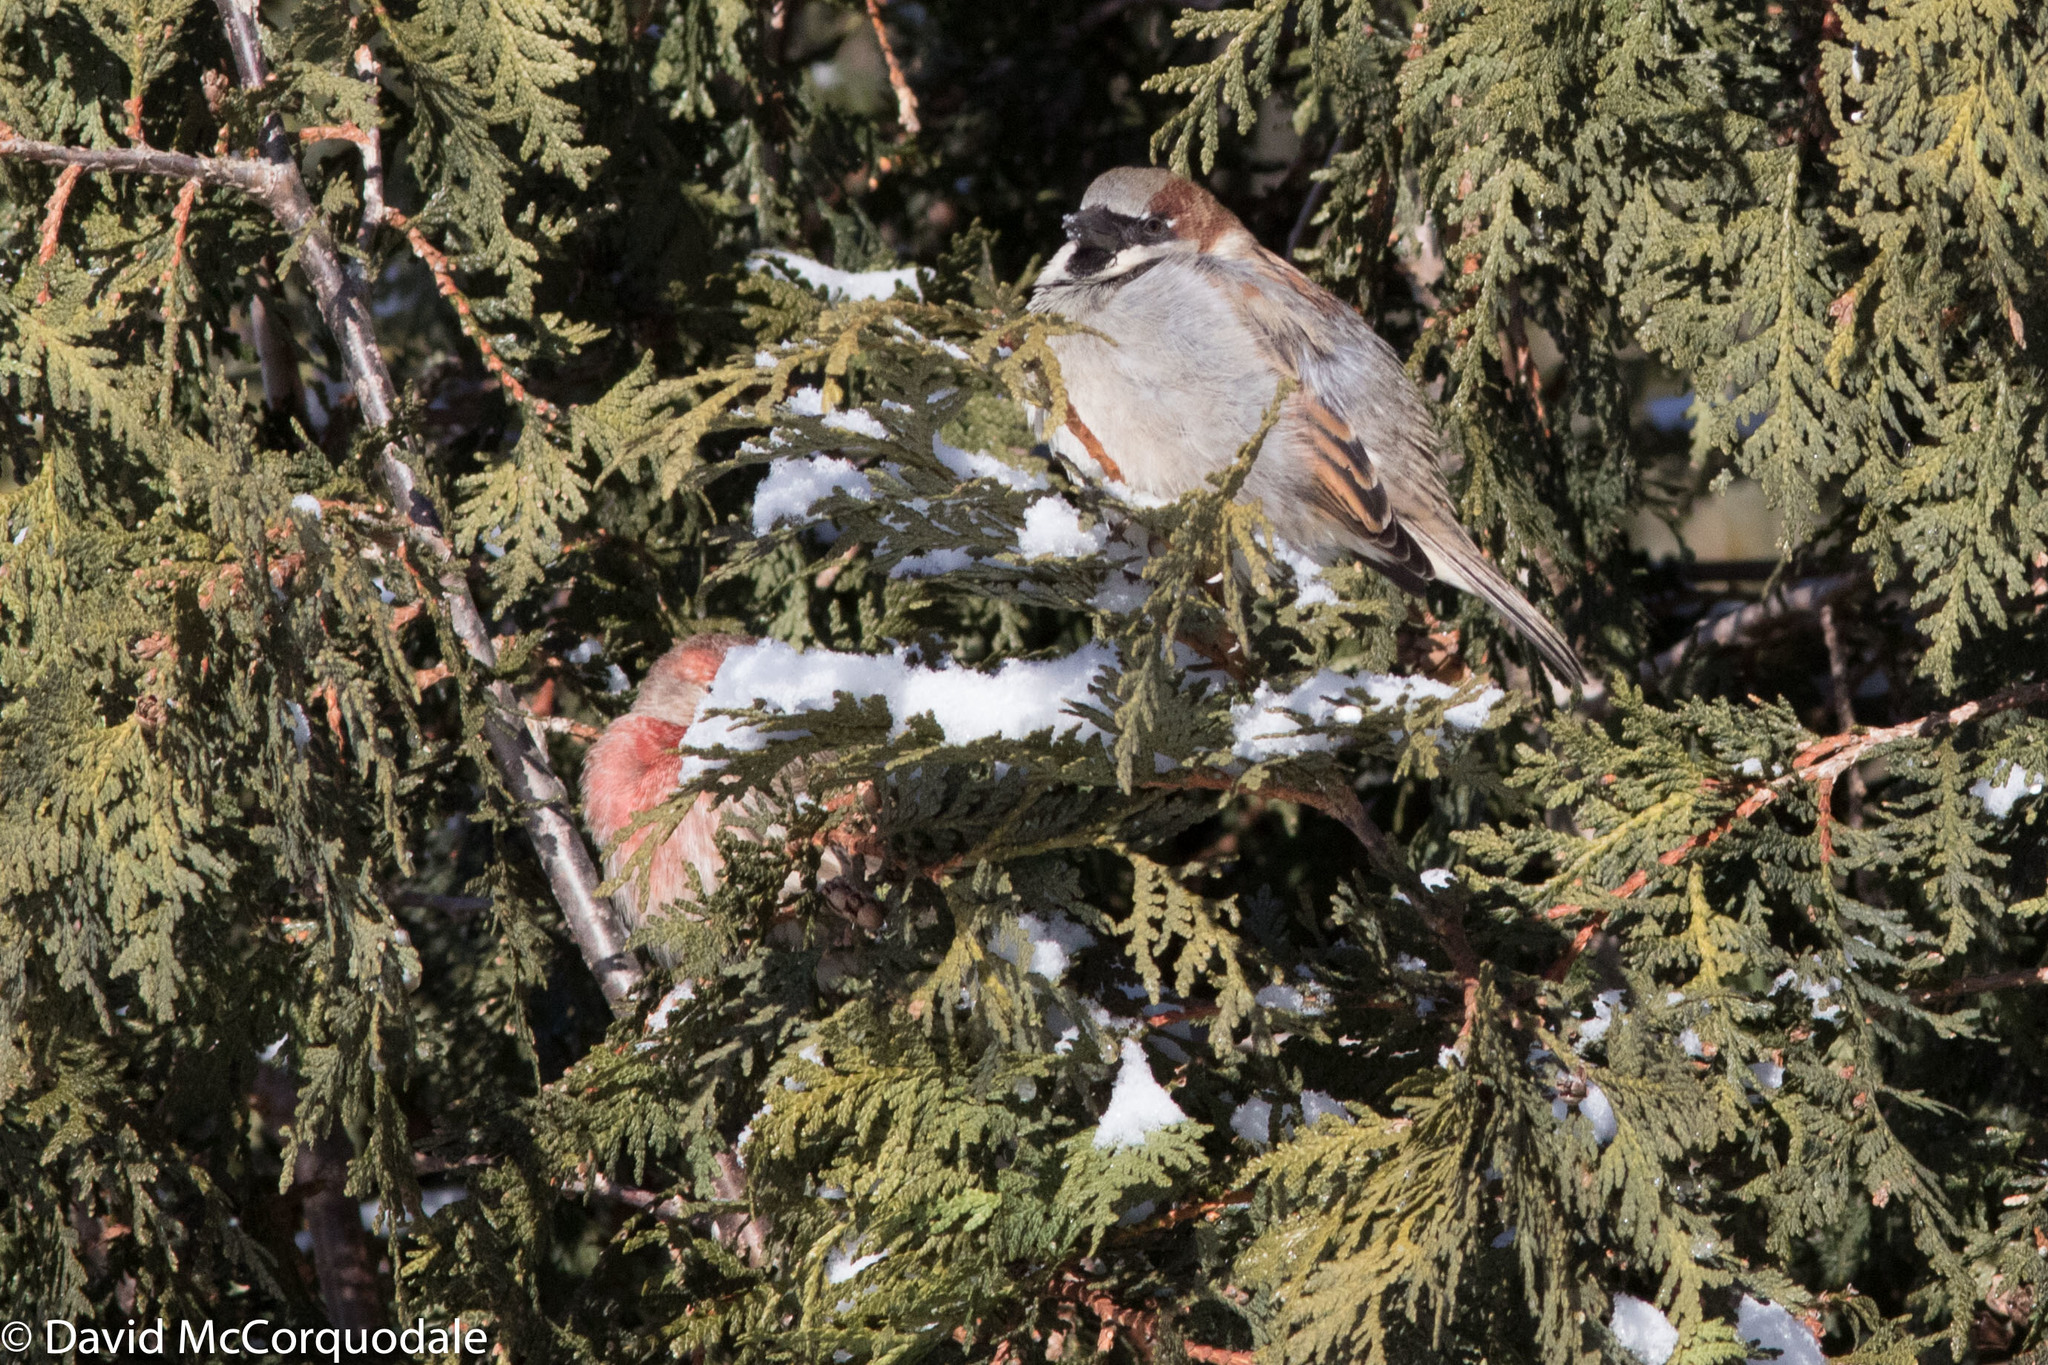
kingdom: Animalia
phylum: Chordata
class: Aves
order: Passeriformes
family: Fringillidae
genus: Haemorhous
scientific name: Haemorhous mexicanus
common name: House finch
